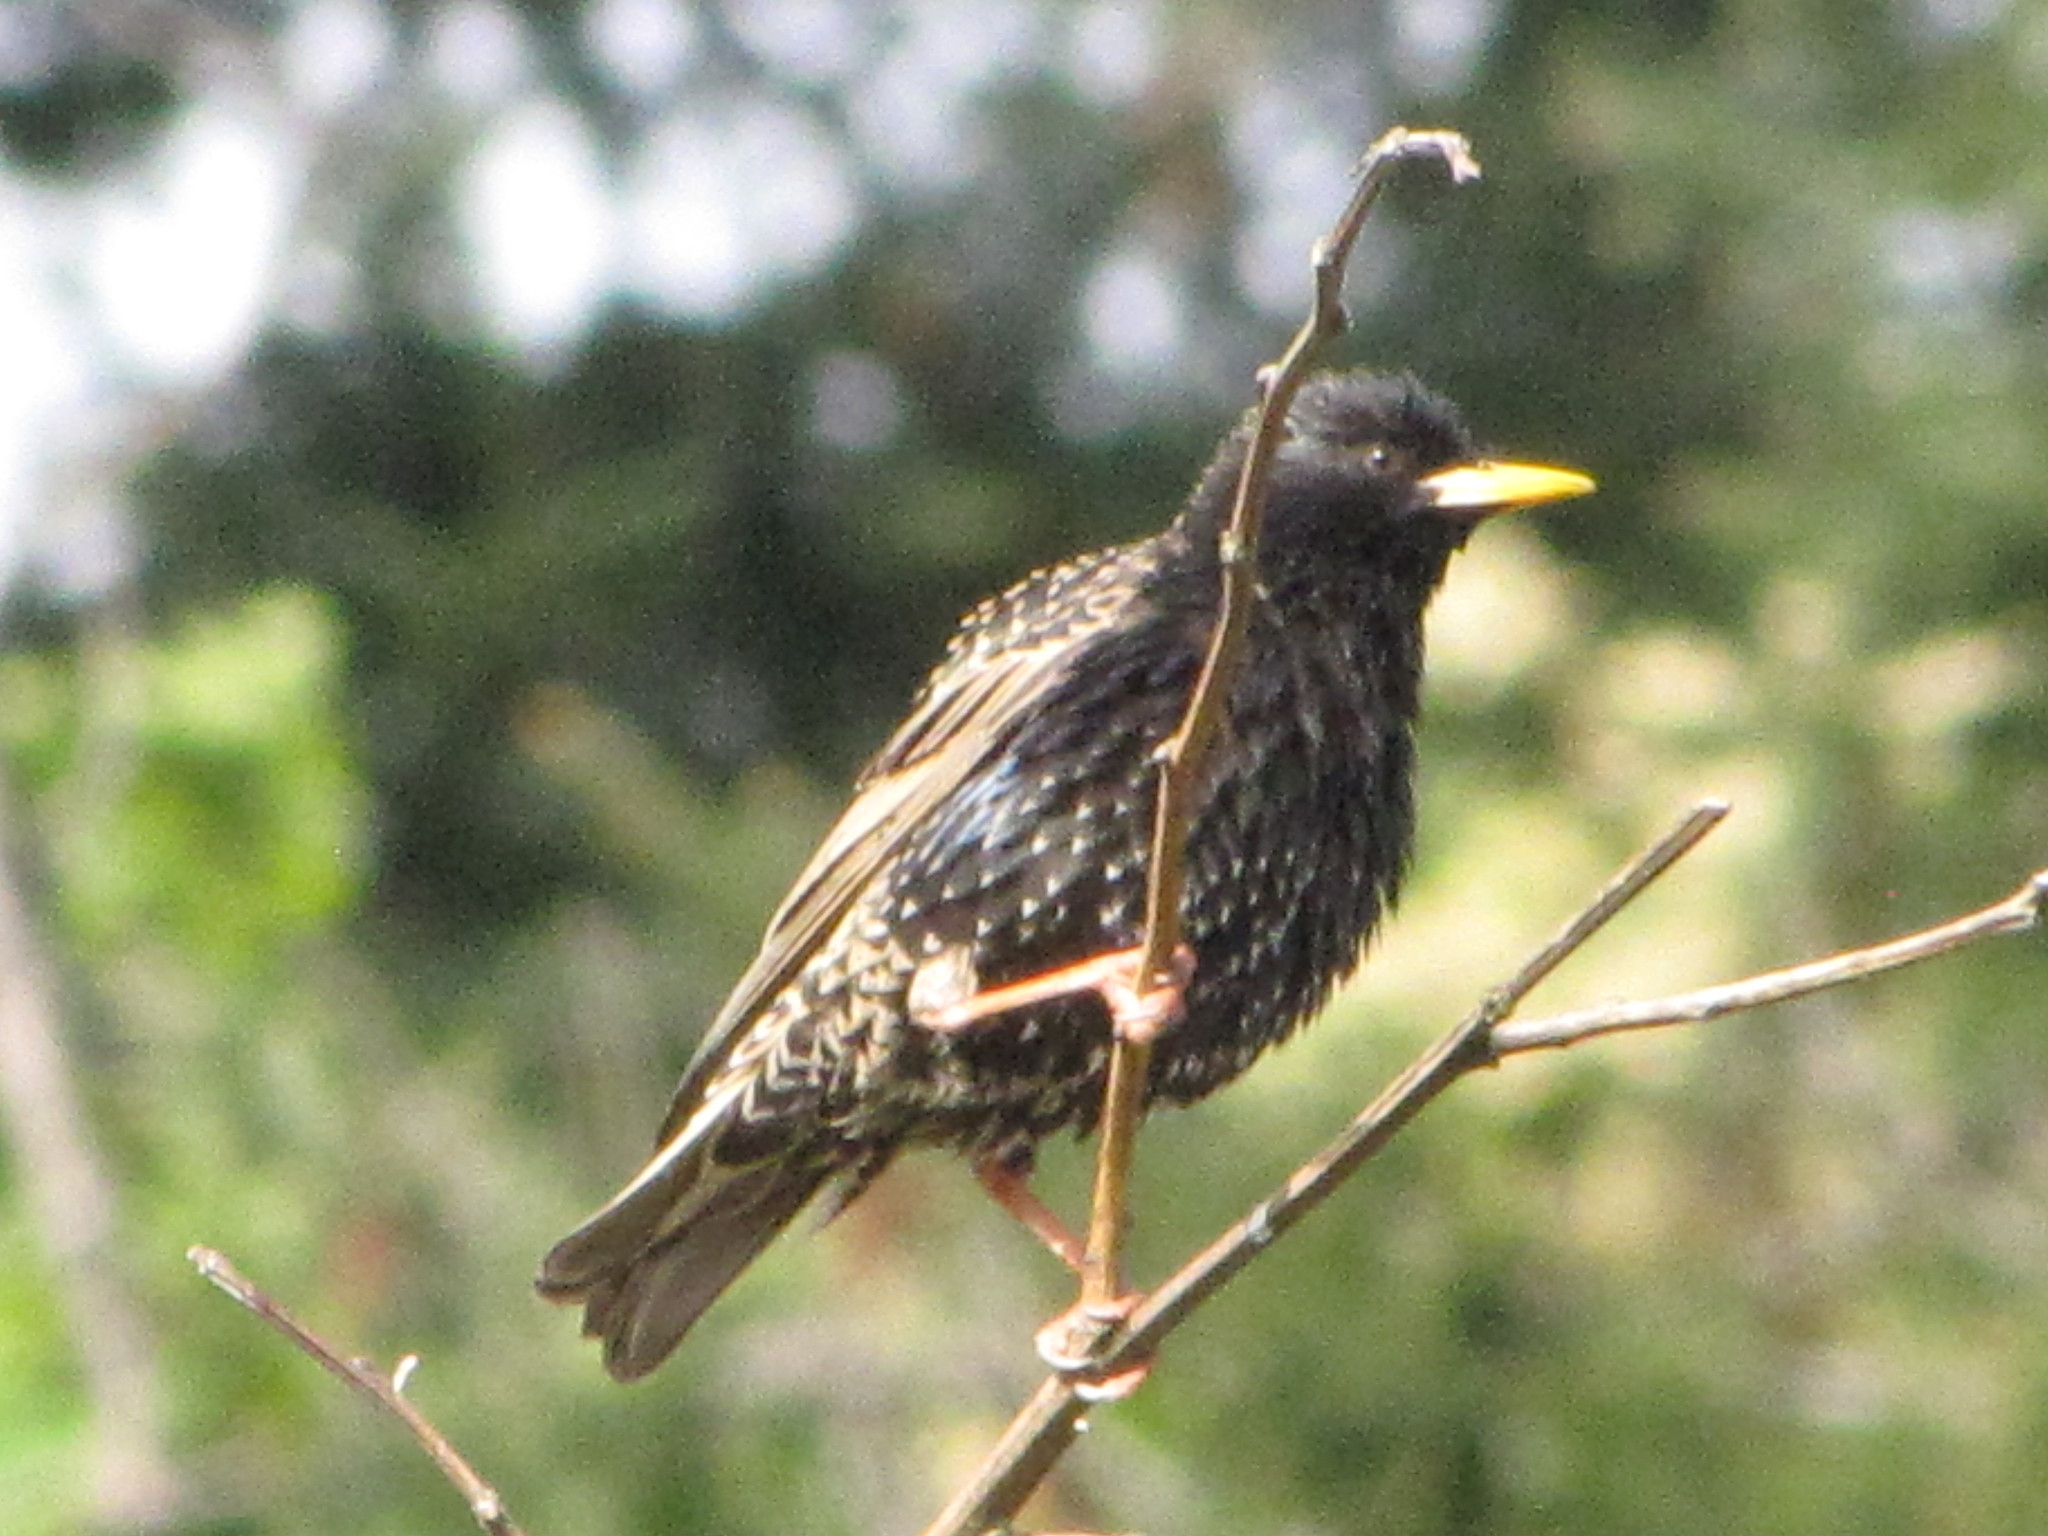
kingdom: Animalia
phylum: Chordata
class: Aves
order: Passeriformes
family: Sturnidae
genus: Sturnus
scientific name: Sturnus vulgaris
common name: Common starling
